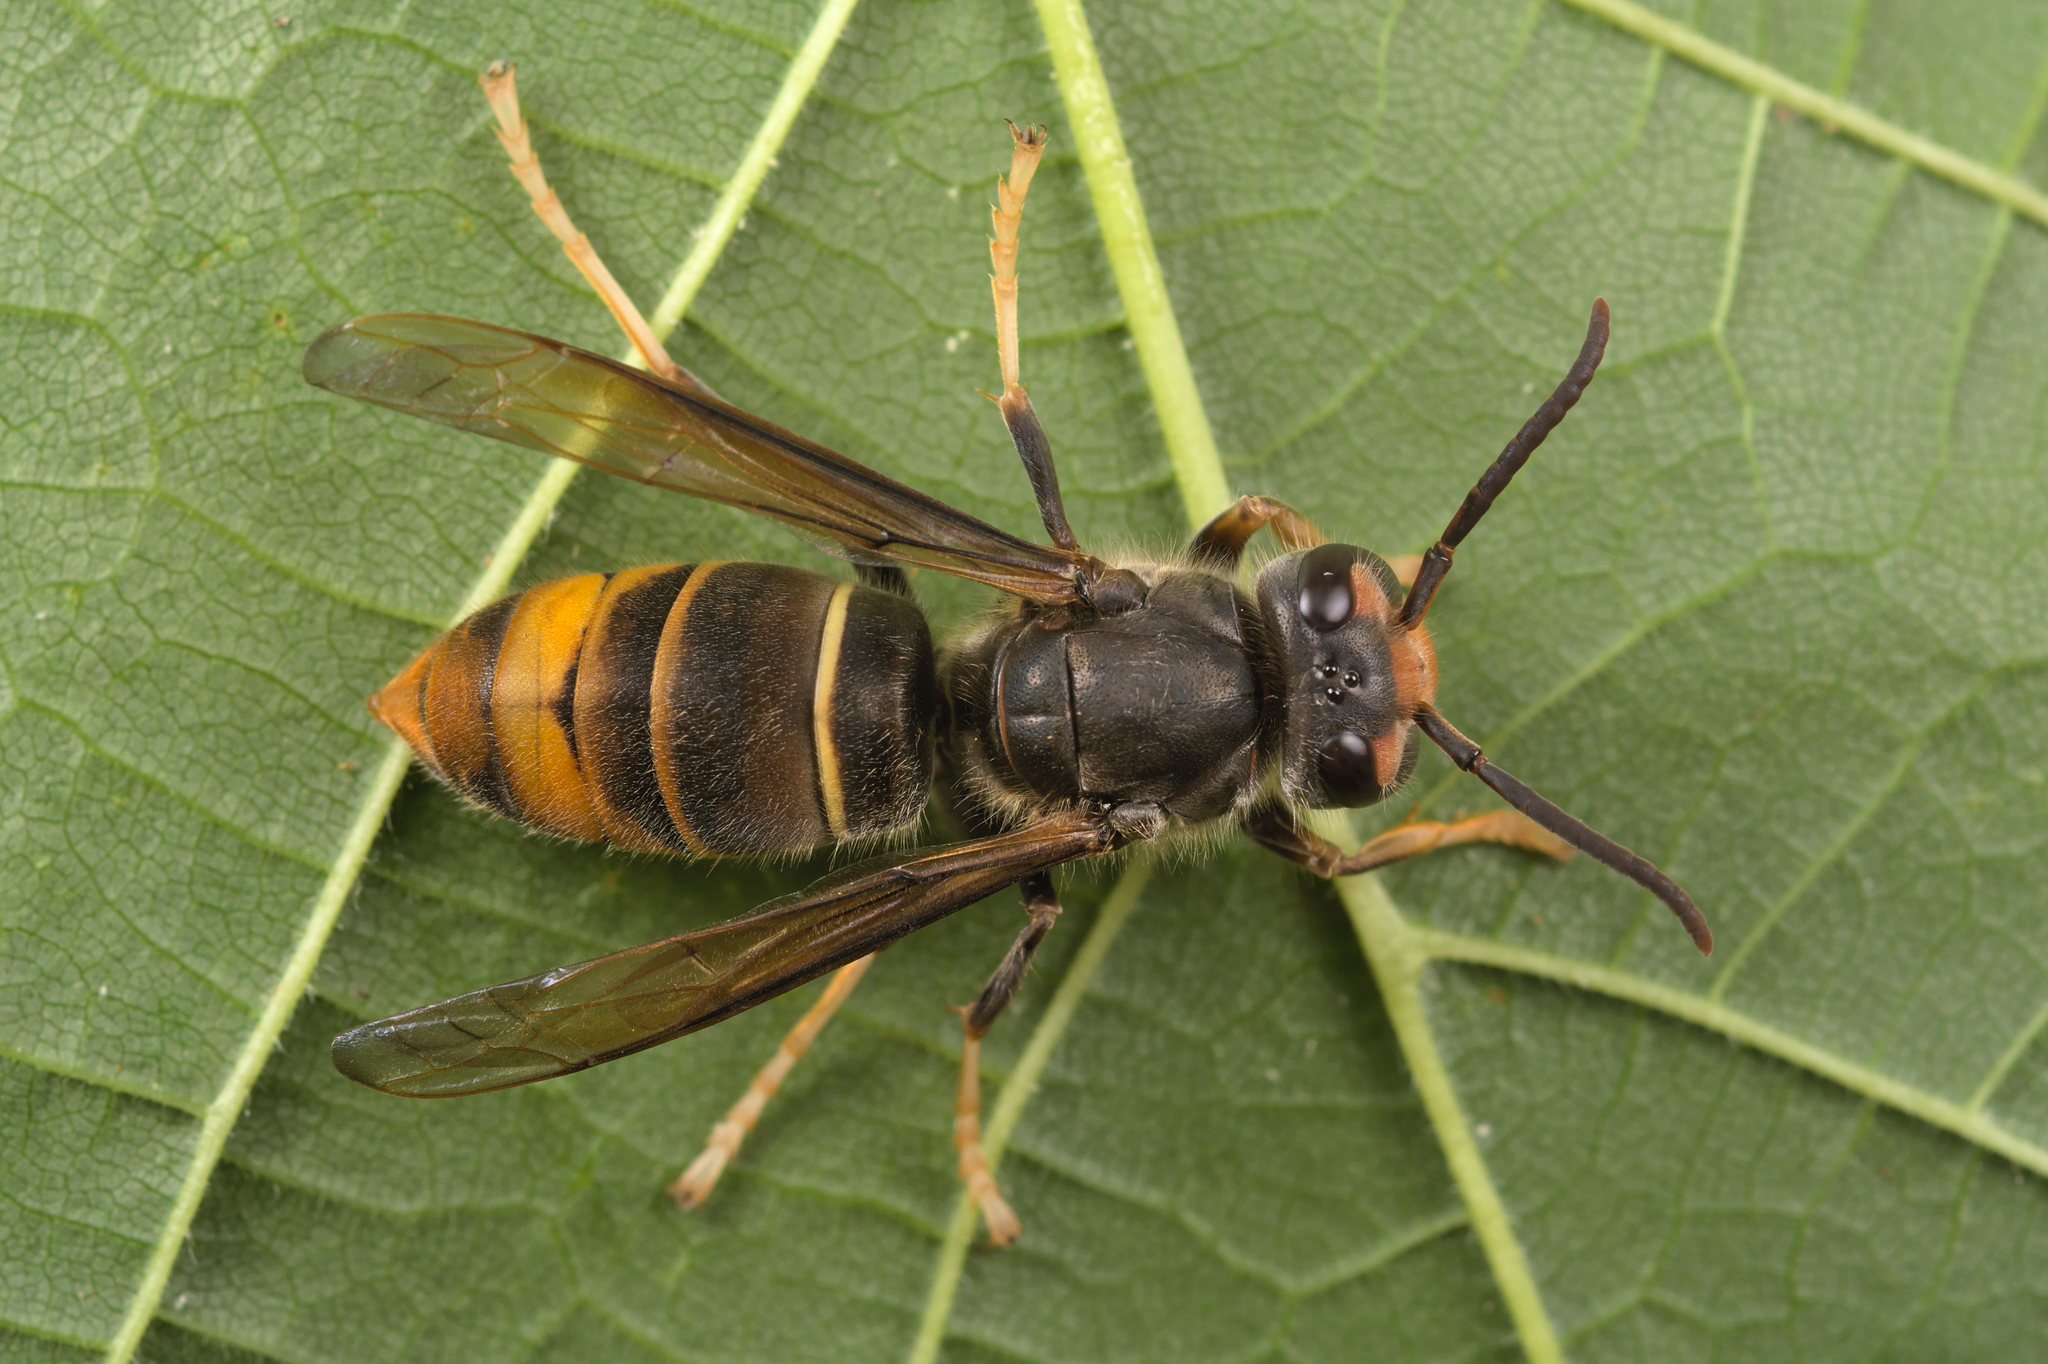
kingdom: Animalia
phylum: Arthropoda
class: Insecta
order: Hymenoptera
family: Vespidae
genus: Vespa
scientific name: Vespa velutina
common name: Asian hornet
